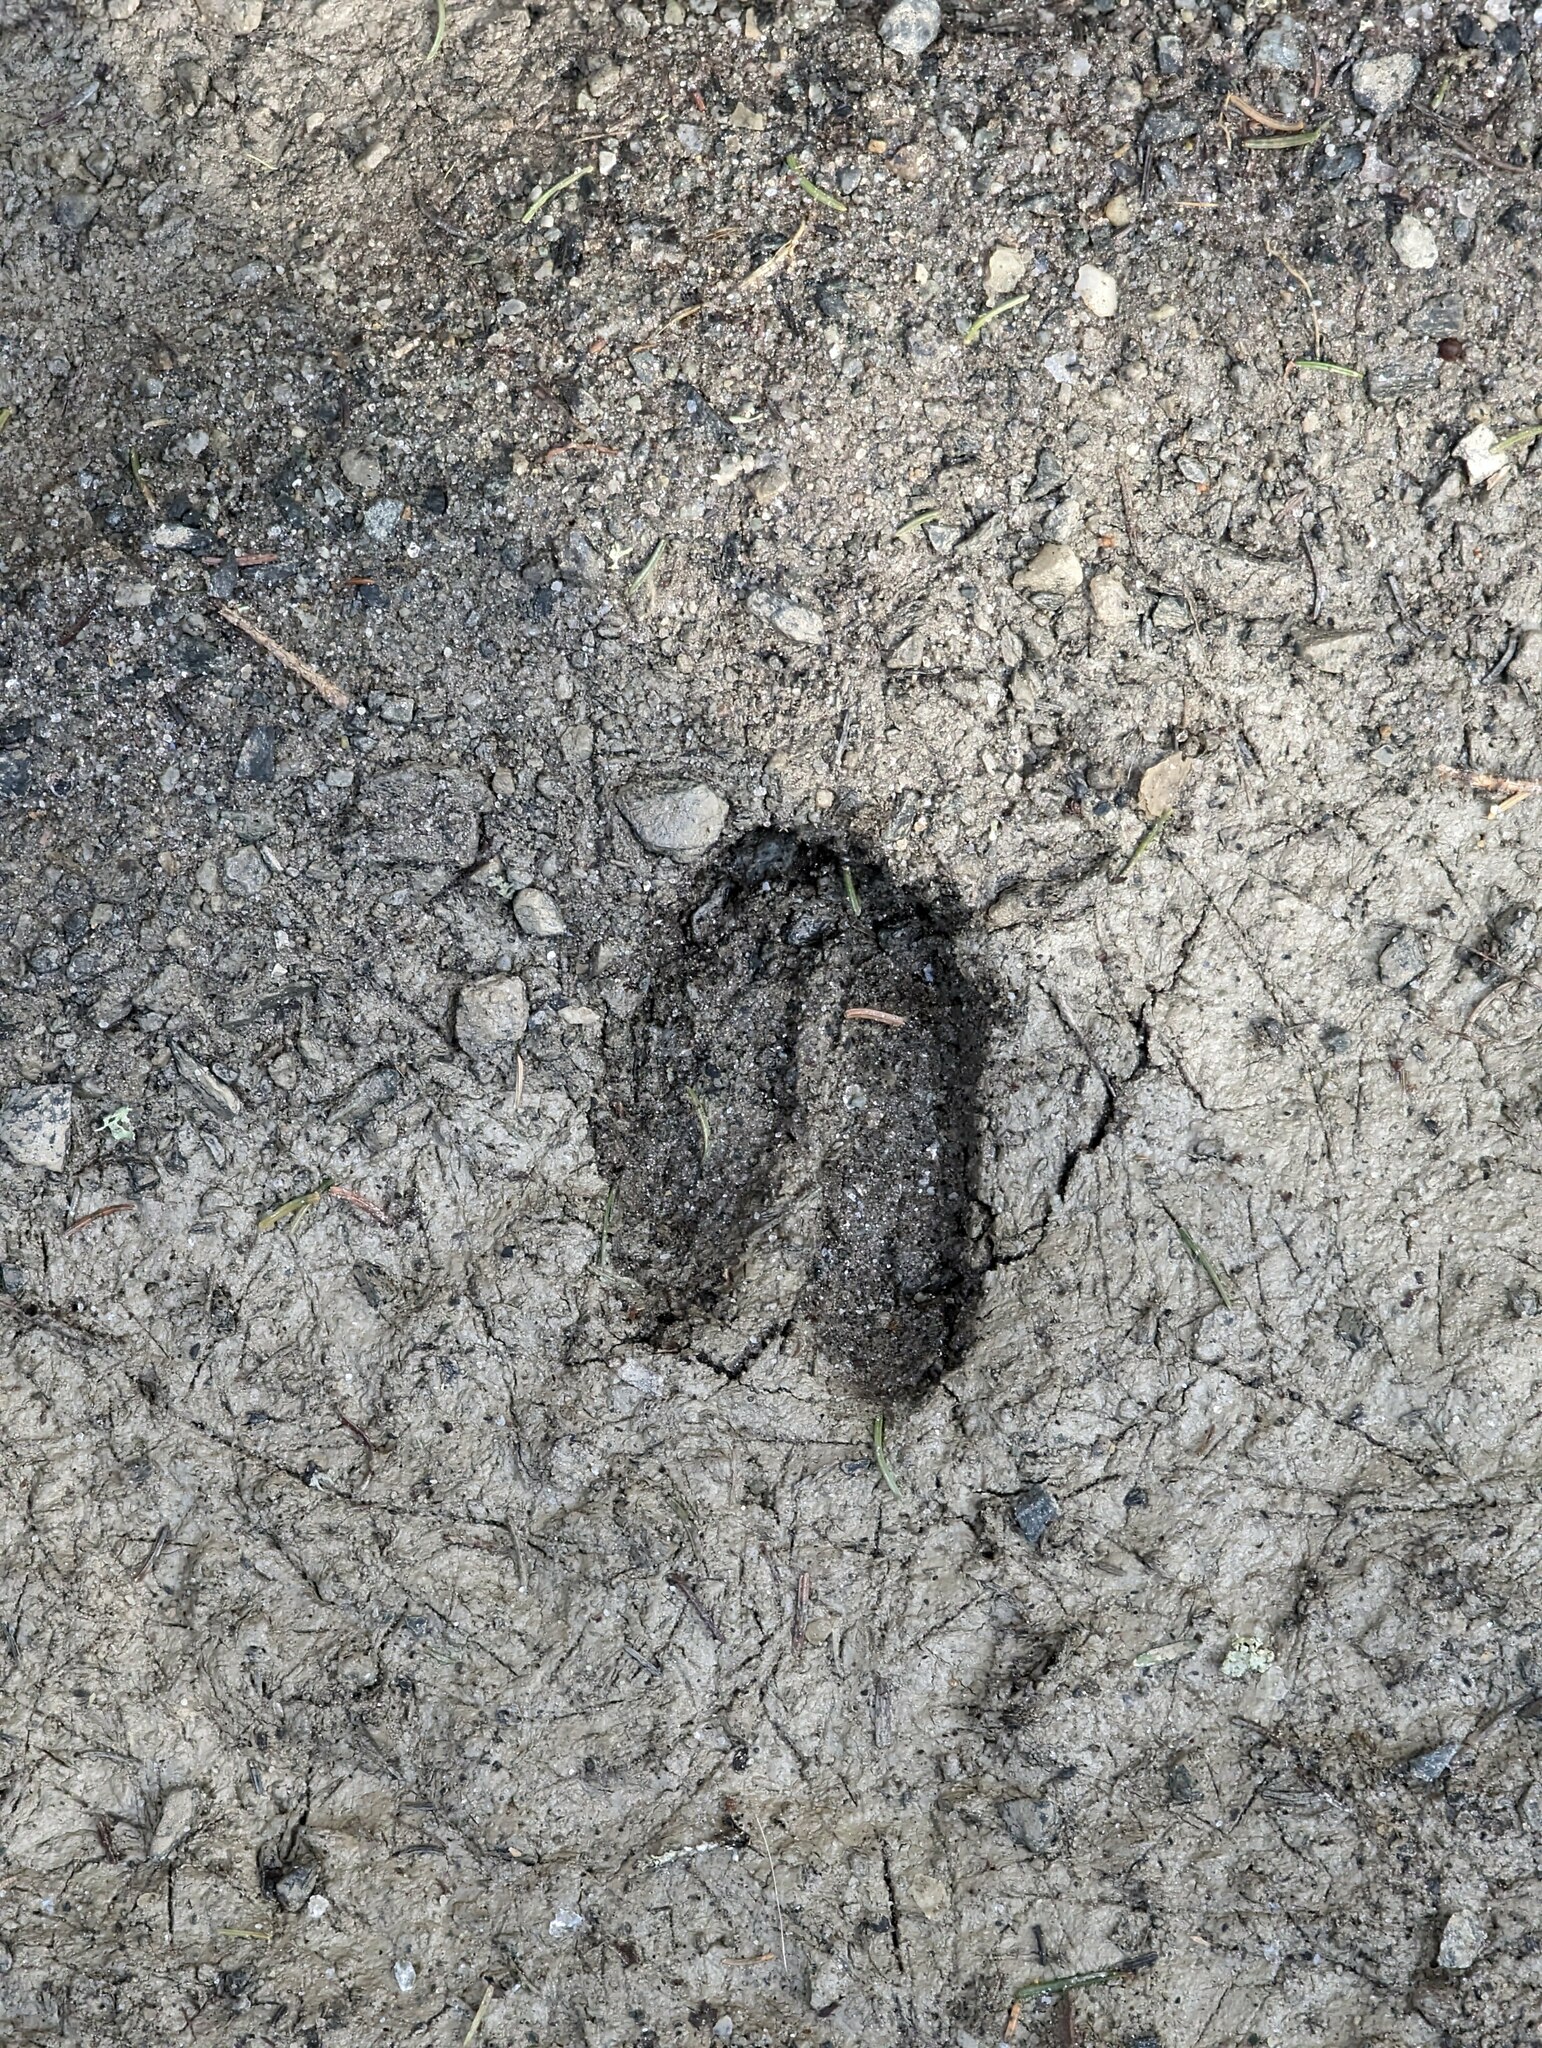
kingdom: Animalia
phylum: Chordata
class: Mammalia
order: Artiodactyla
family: Cervidae
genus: Odocoileus
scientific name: Odocoileus virginianus
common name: White-tailed deer
